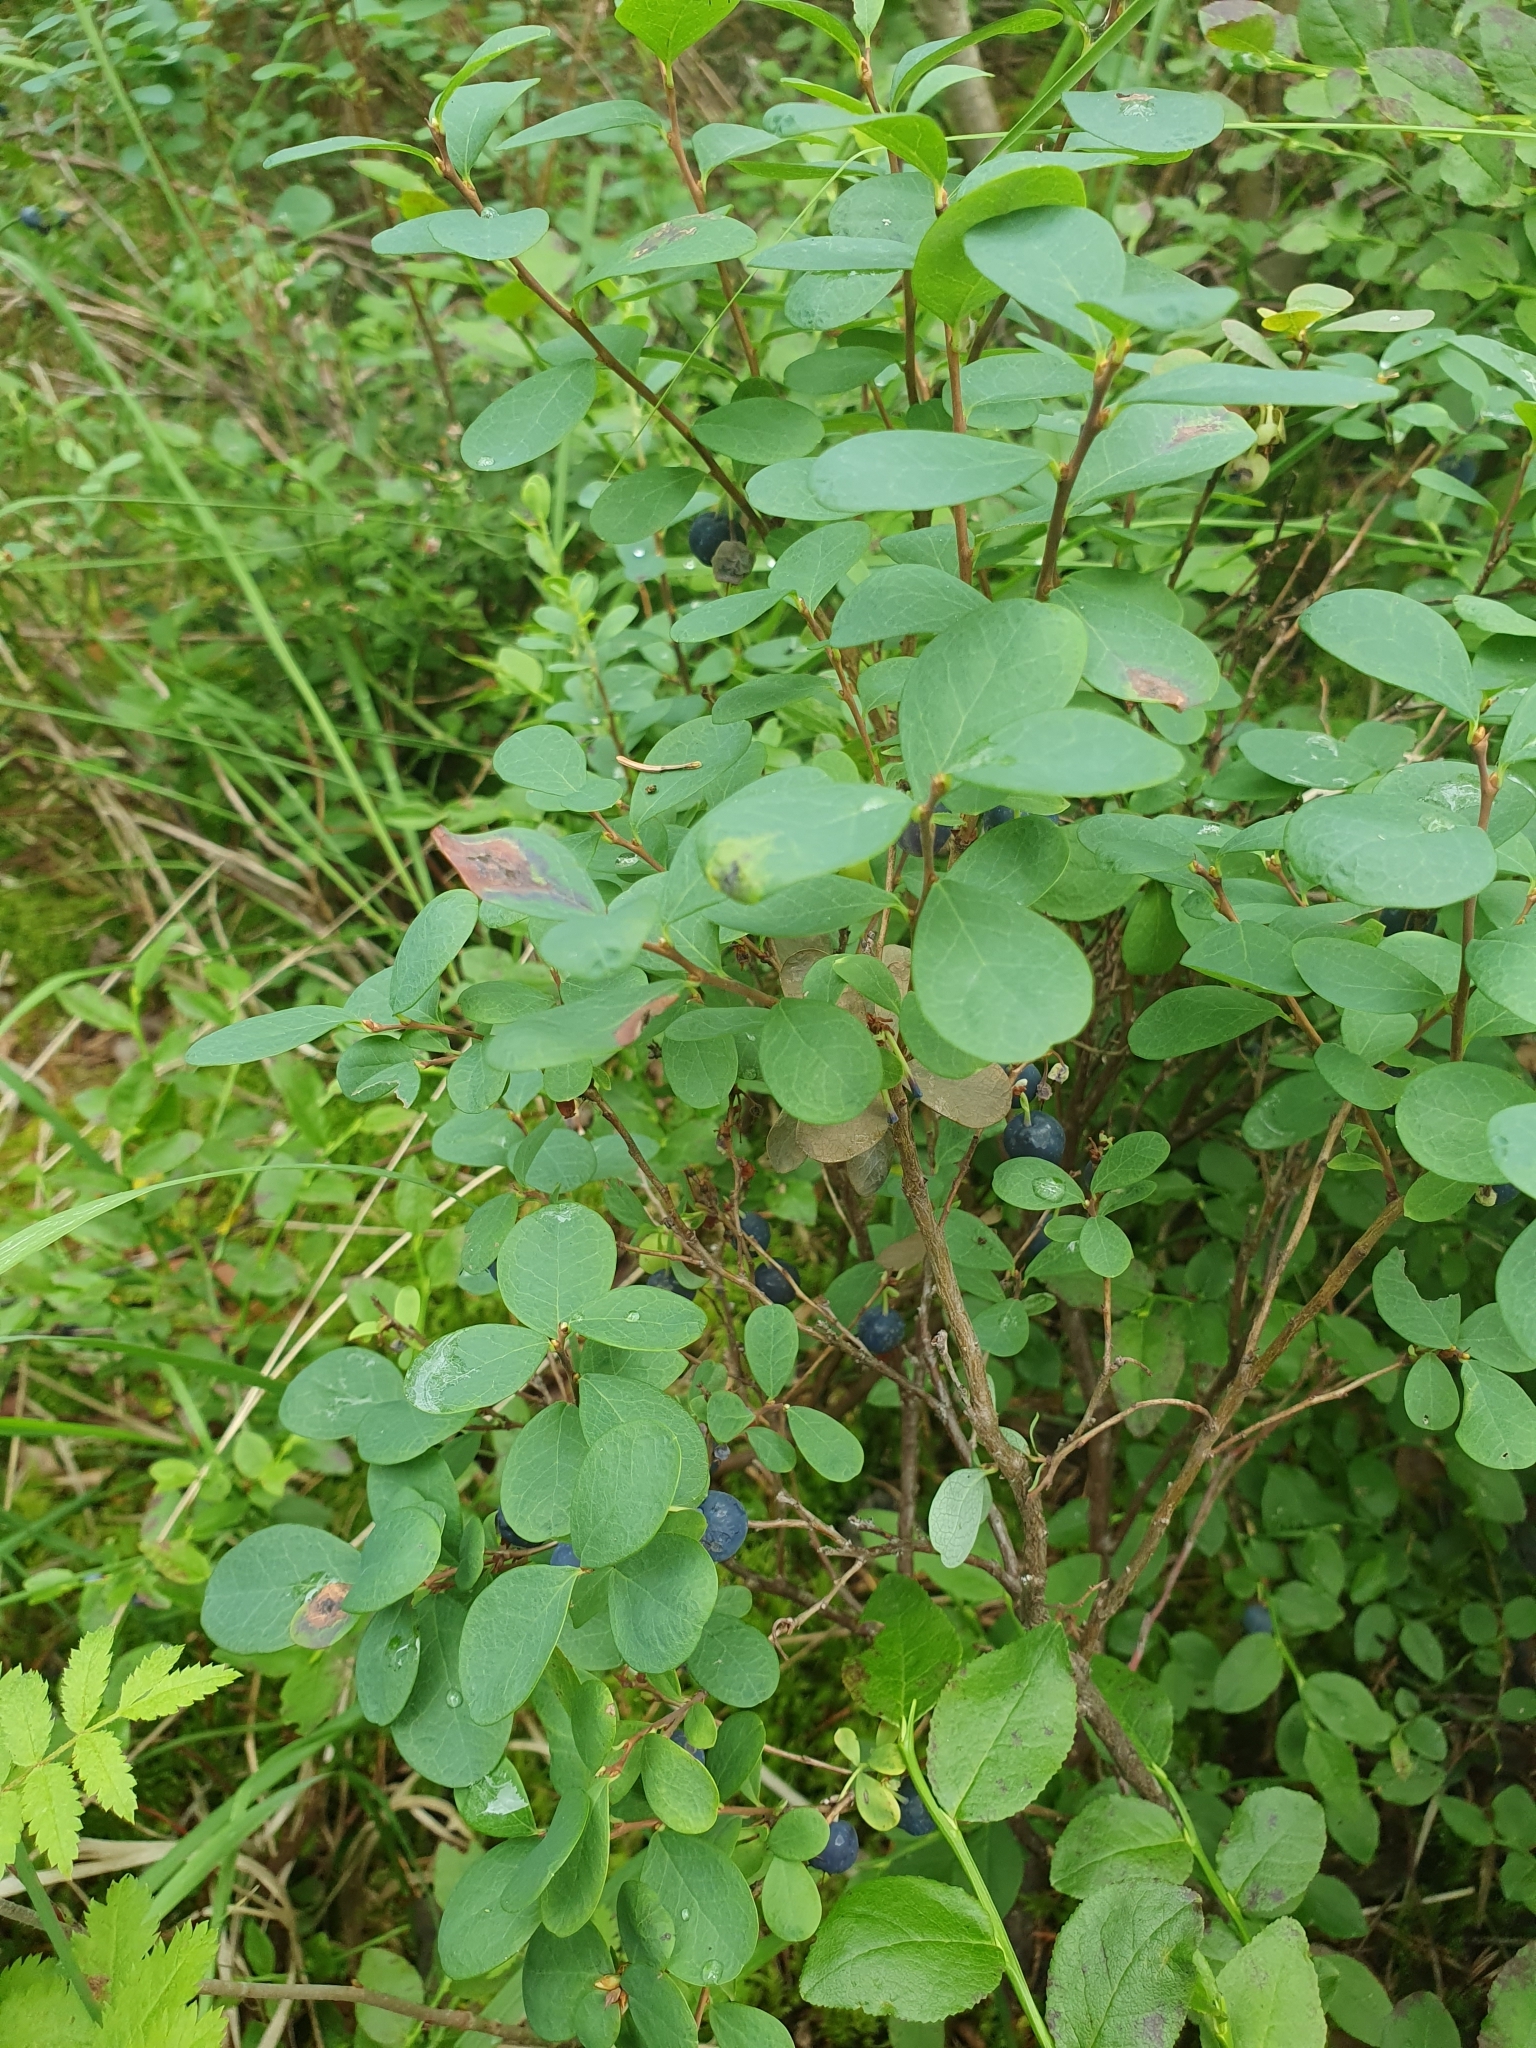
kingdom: Plantae
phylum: Tracheophyta
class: Magnoliopsida
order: Ericales
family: Ericaceae
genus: Vaccinium
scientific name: Vaccinium uliginosum
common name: Bog bilberry
